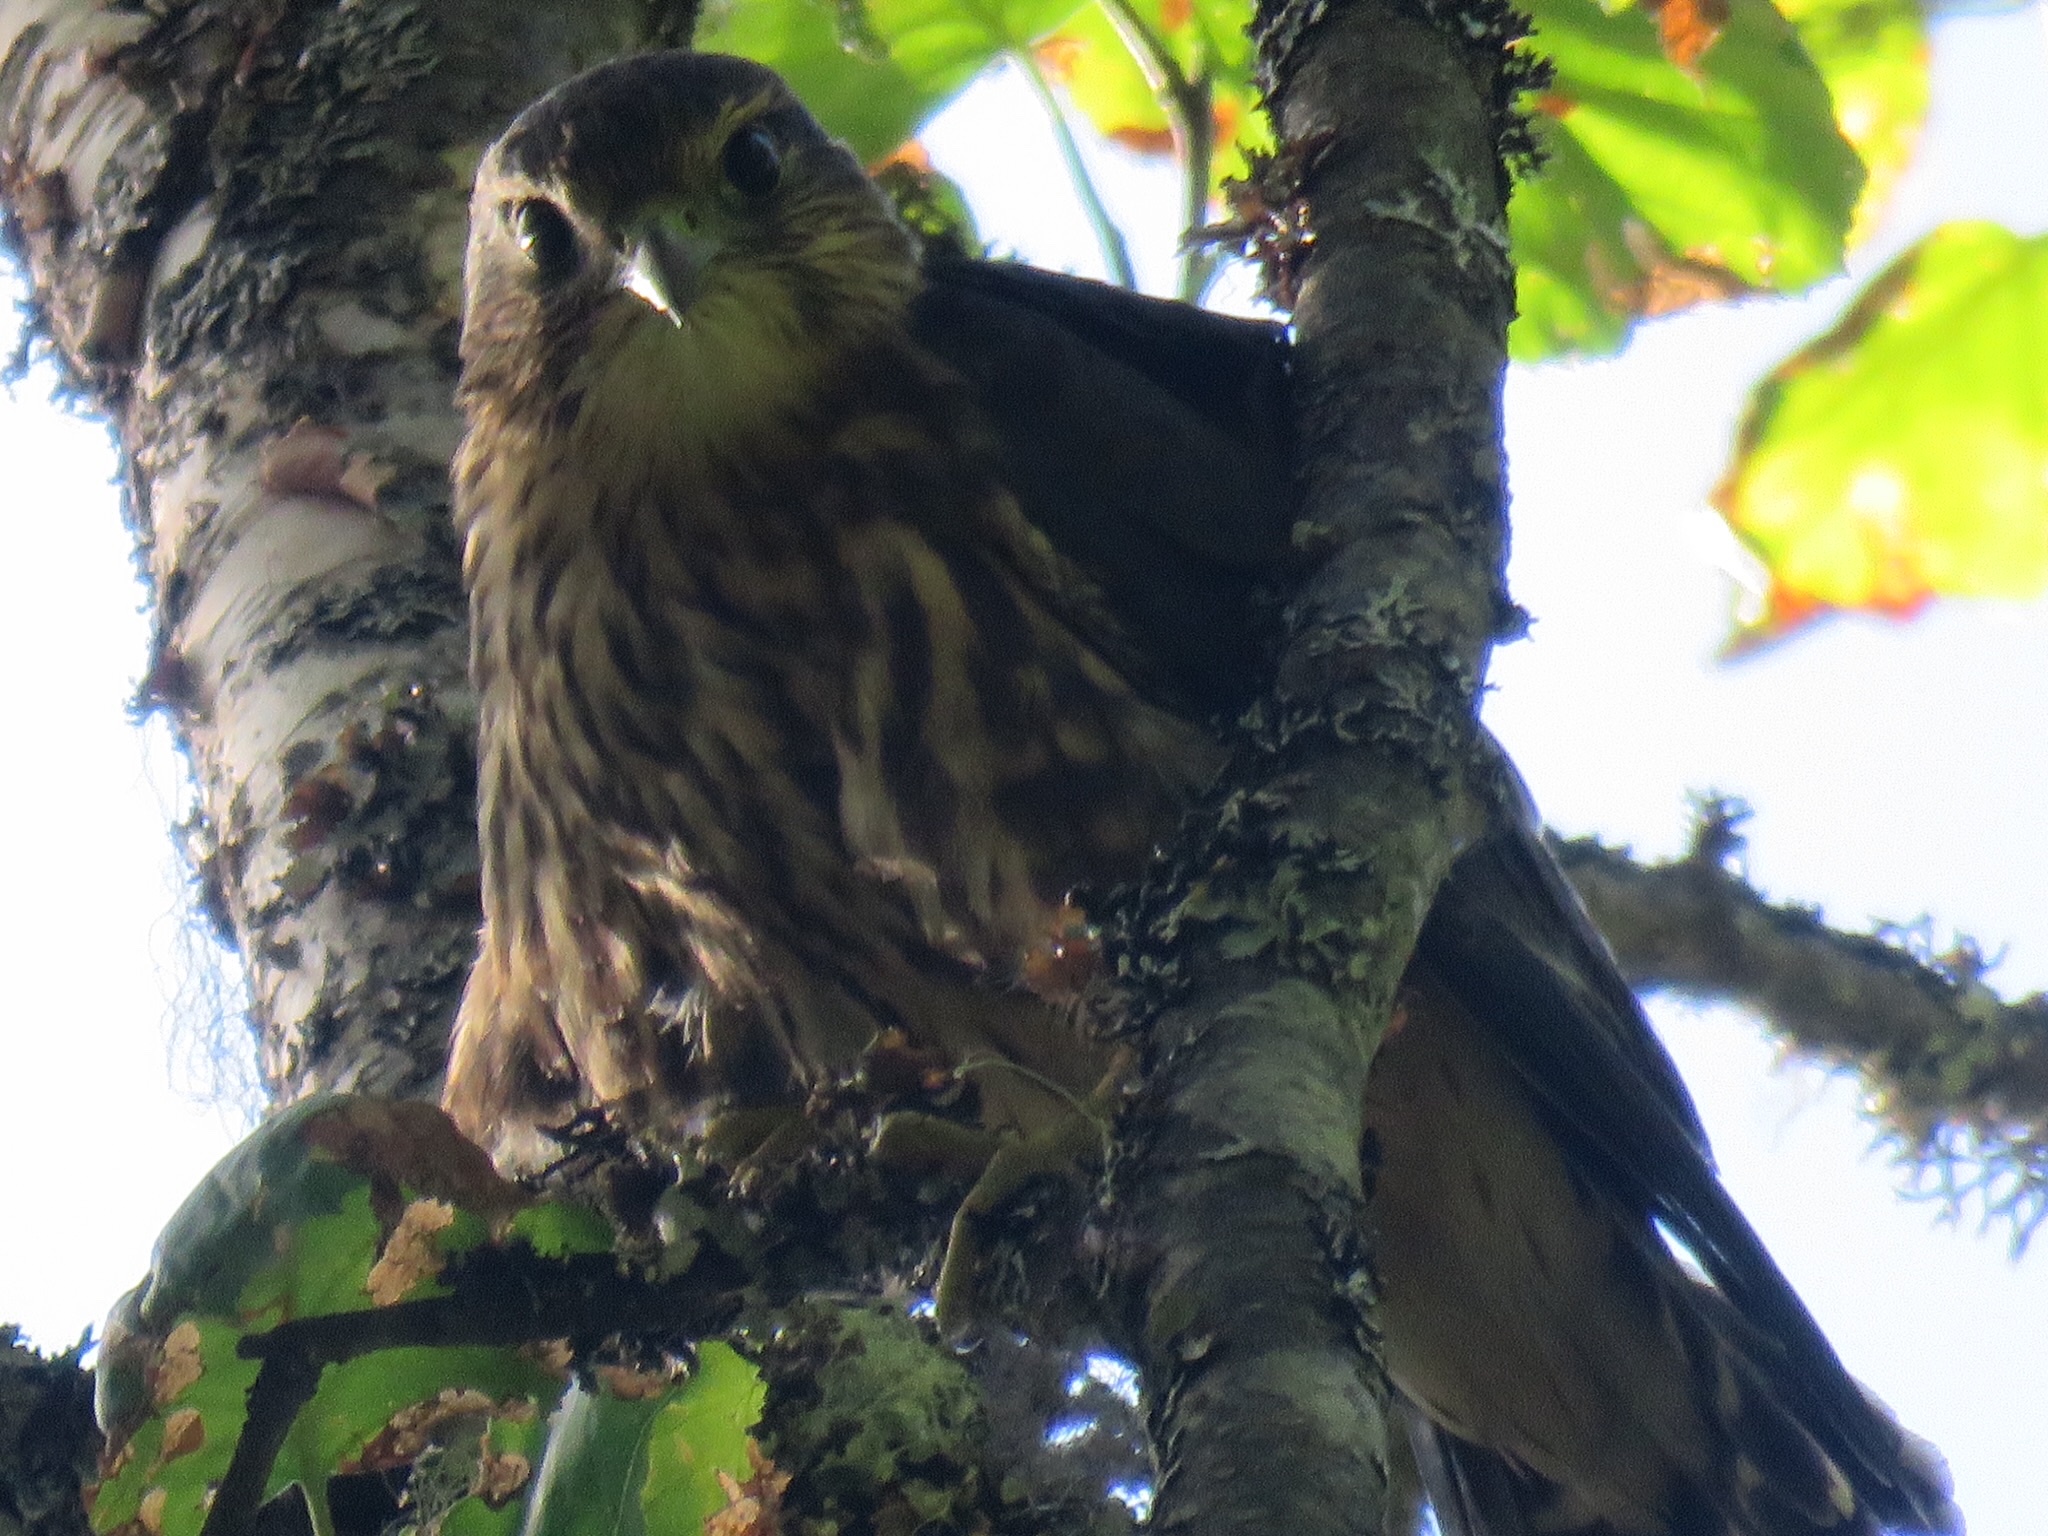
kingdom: Animalia
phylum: Chordata
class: Aves
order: Falconiformes
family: Falconidae
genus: Falco
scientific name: Falco columbarius
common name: Merlin
